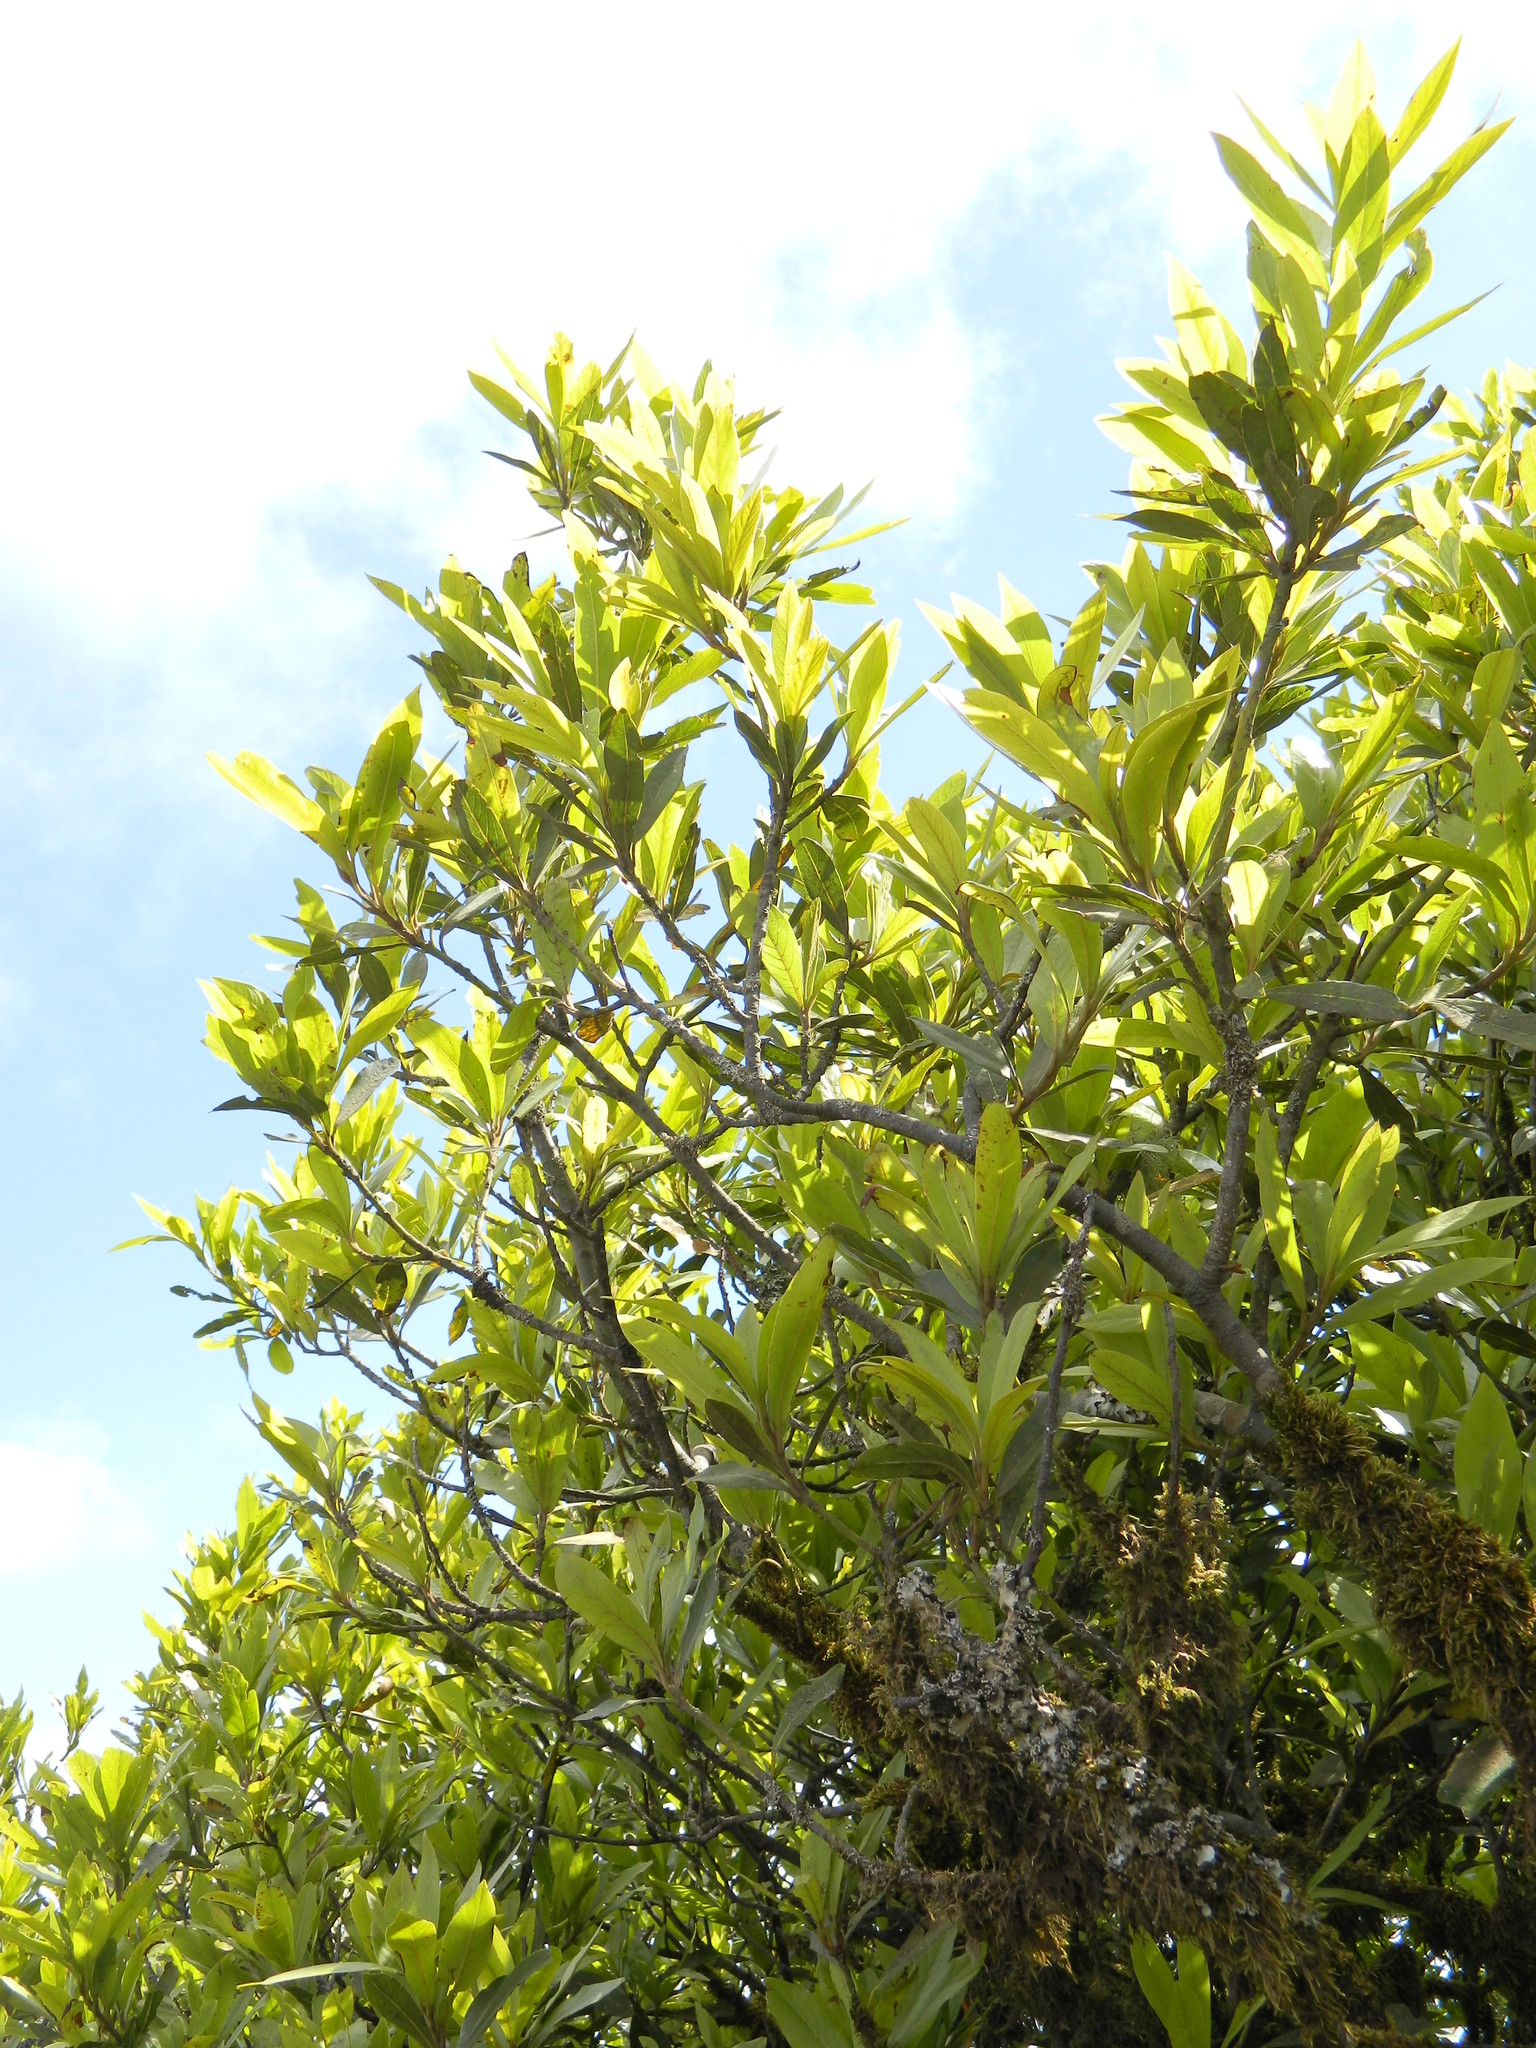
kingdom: Plantae
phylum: Tracheophyta
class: Magnoliopsida
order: Laurales
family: Lauraceae
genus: Laurus
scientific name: Laurus novocanariensis
